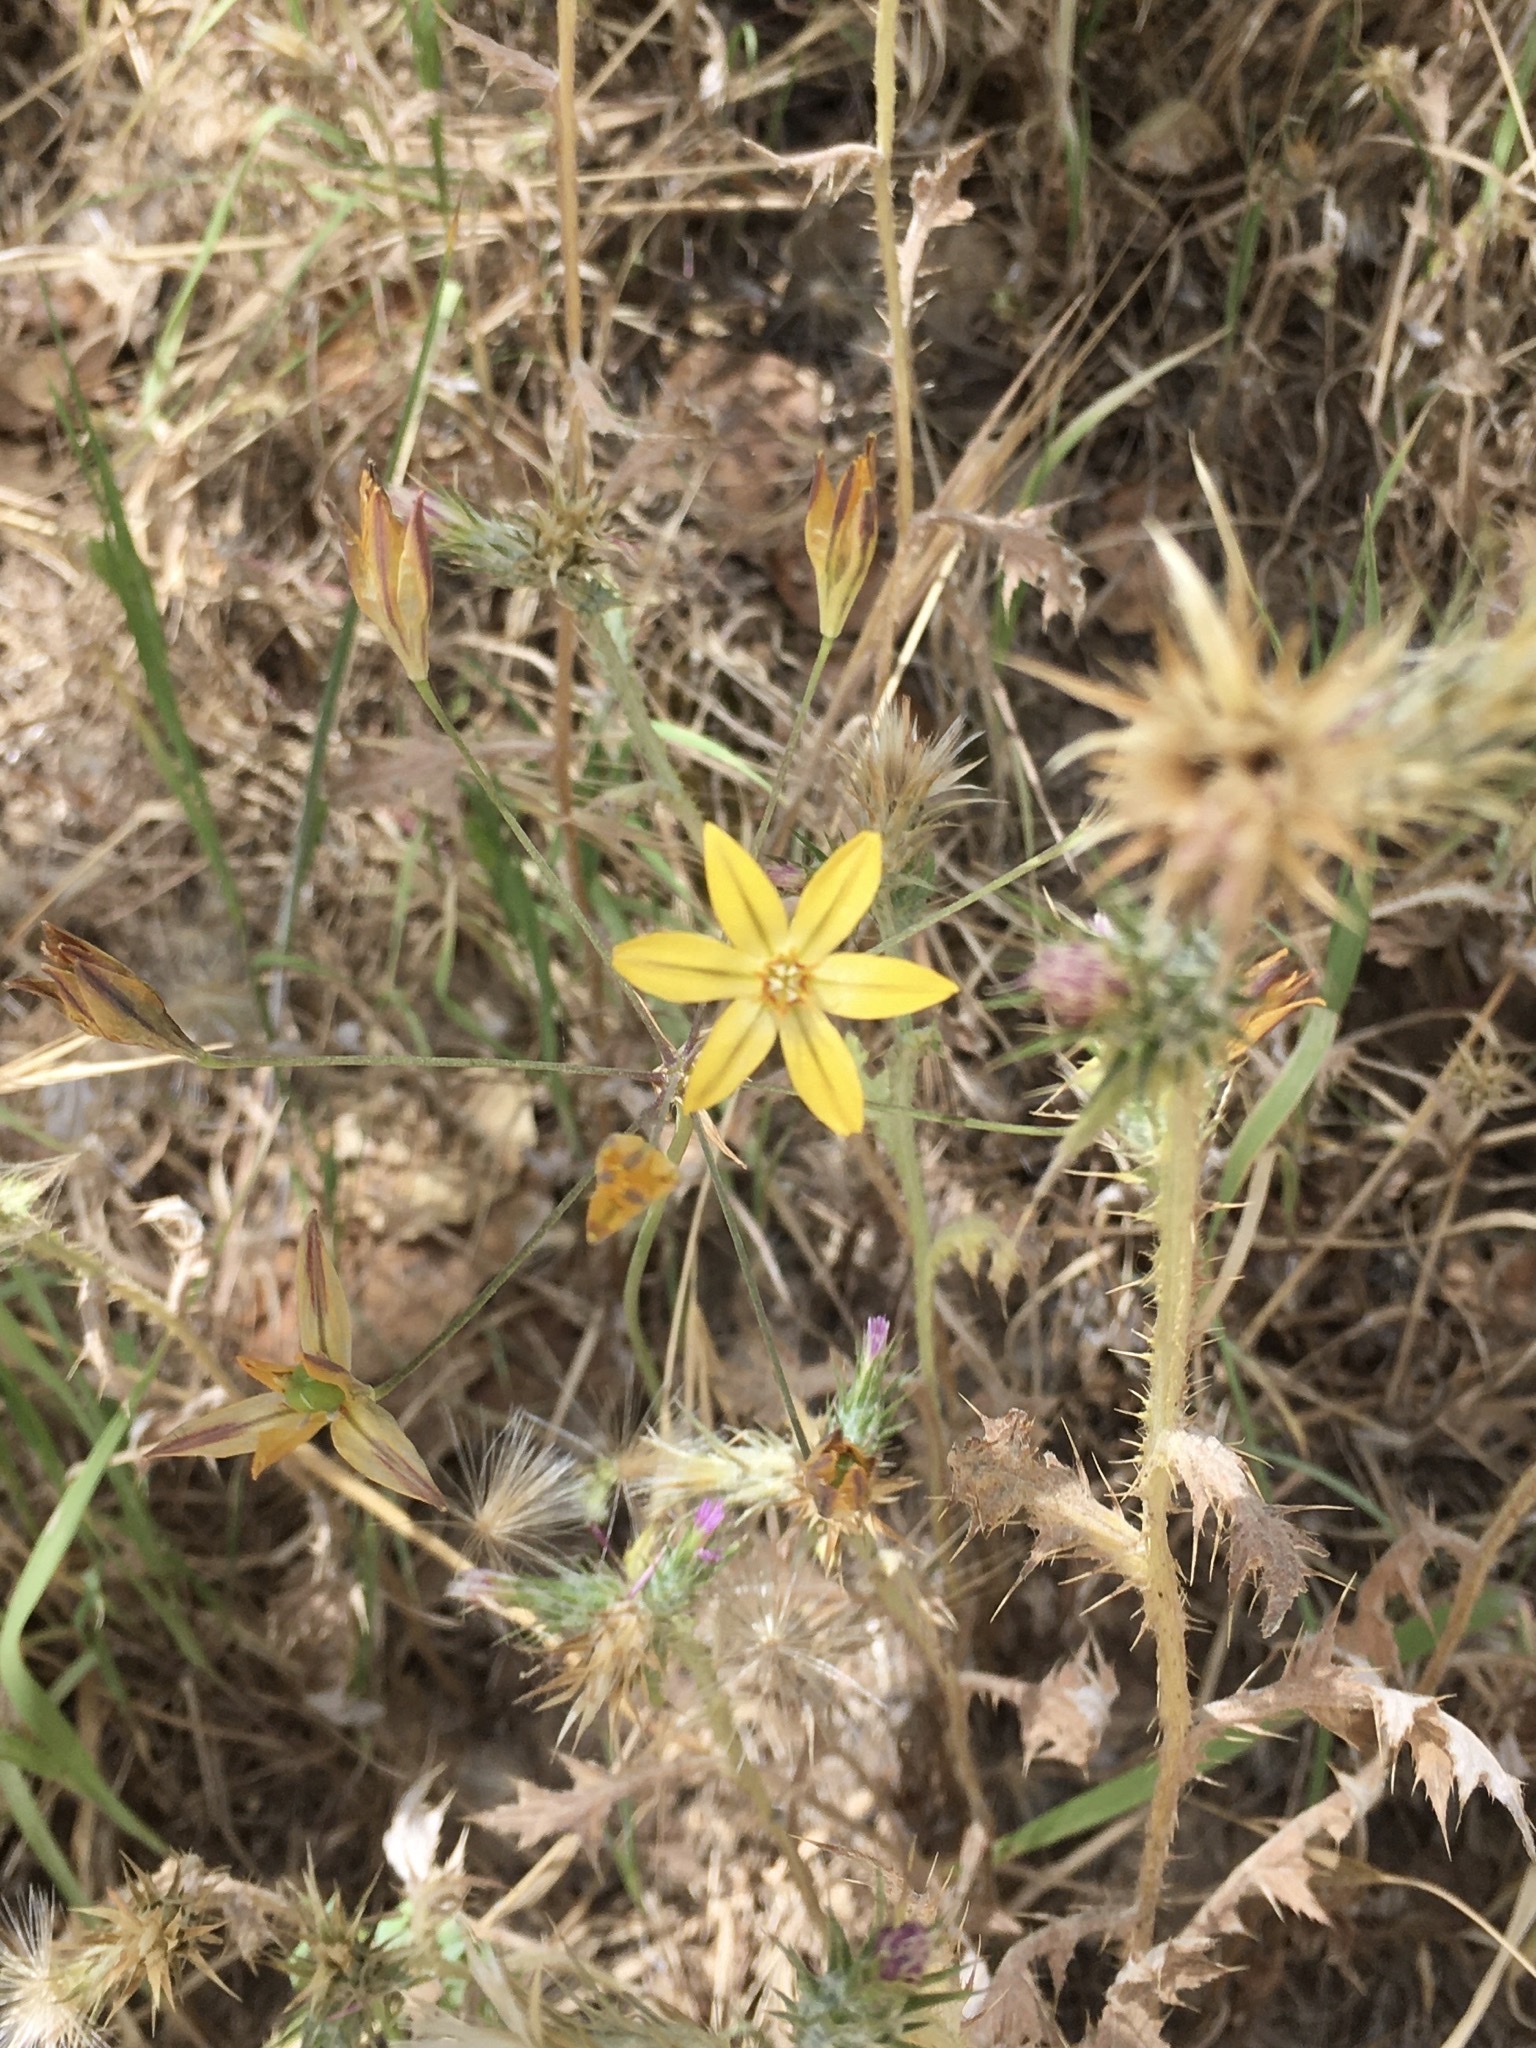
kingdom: Plantae
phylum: Tracheophyta
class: Liliopsida
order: Asparagales
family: Asparagaceae
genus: Triteleia
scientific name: Triteleia ixioides
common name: Yellow-brodiaea
